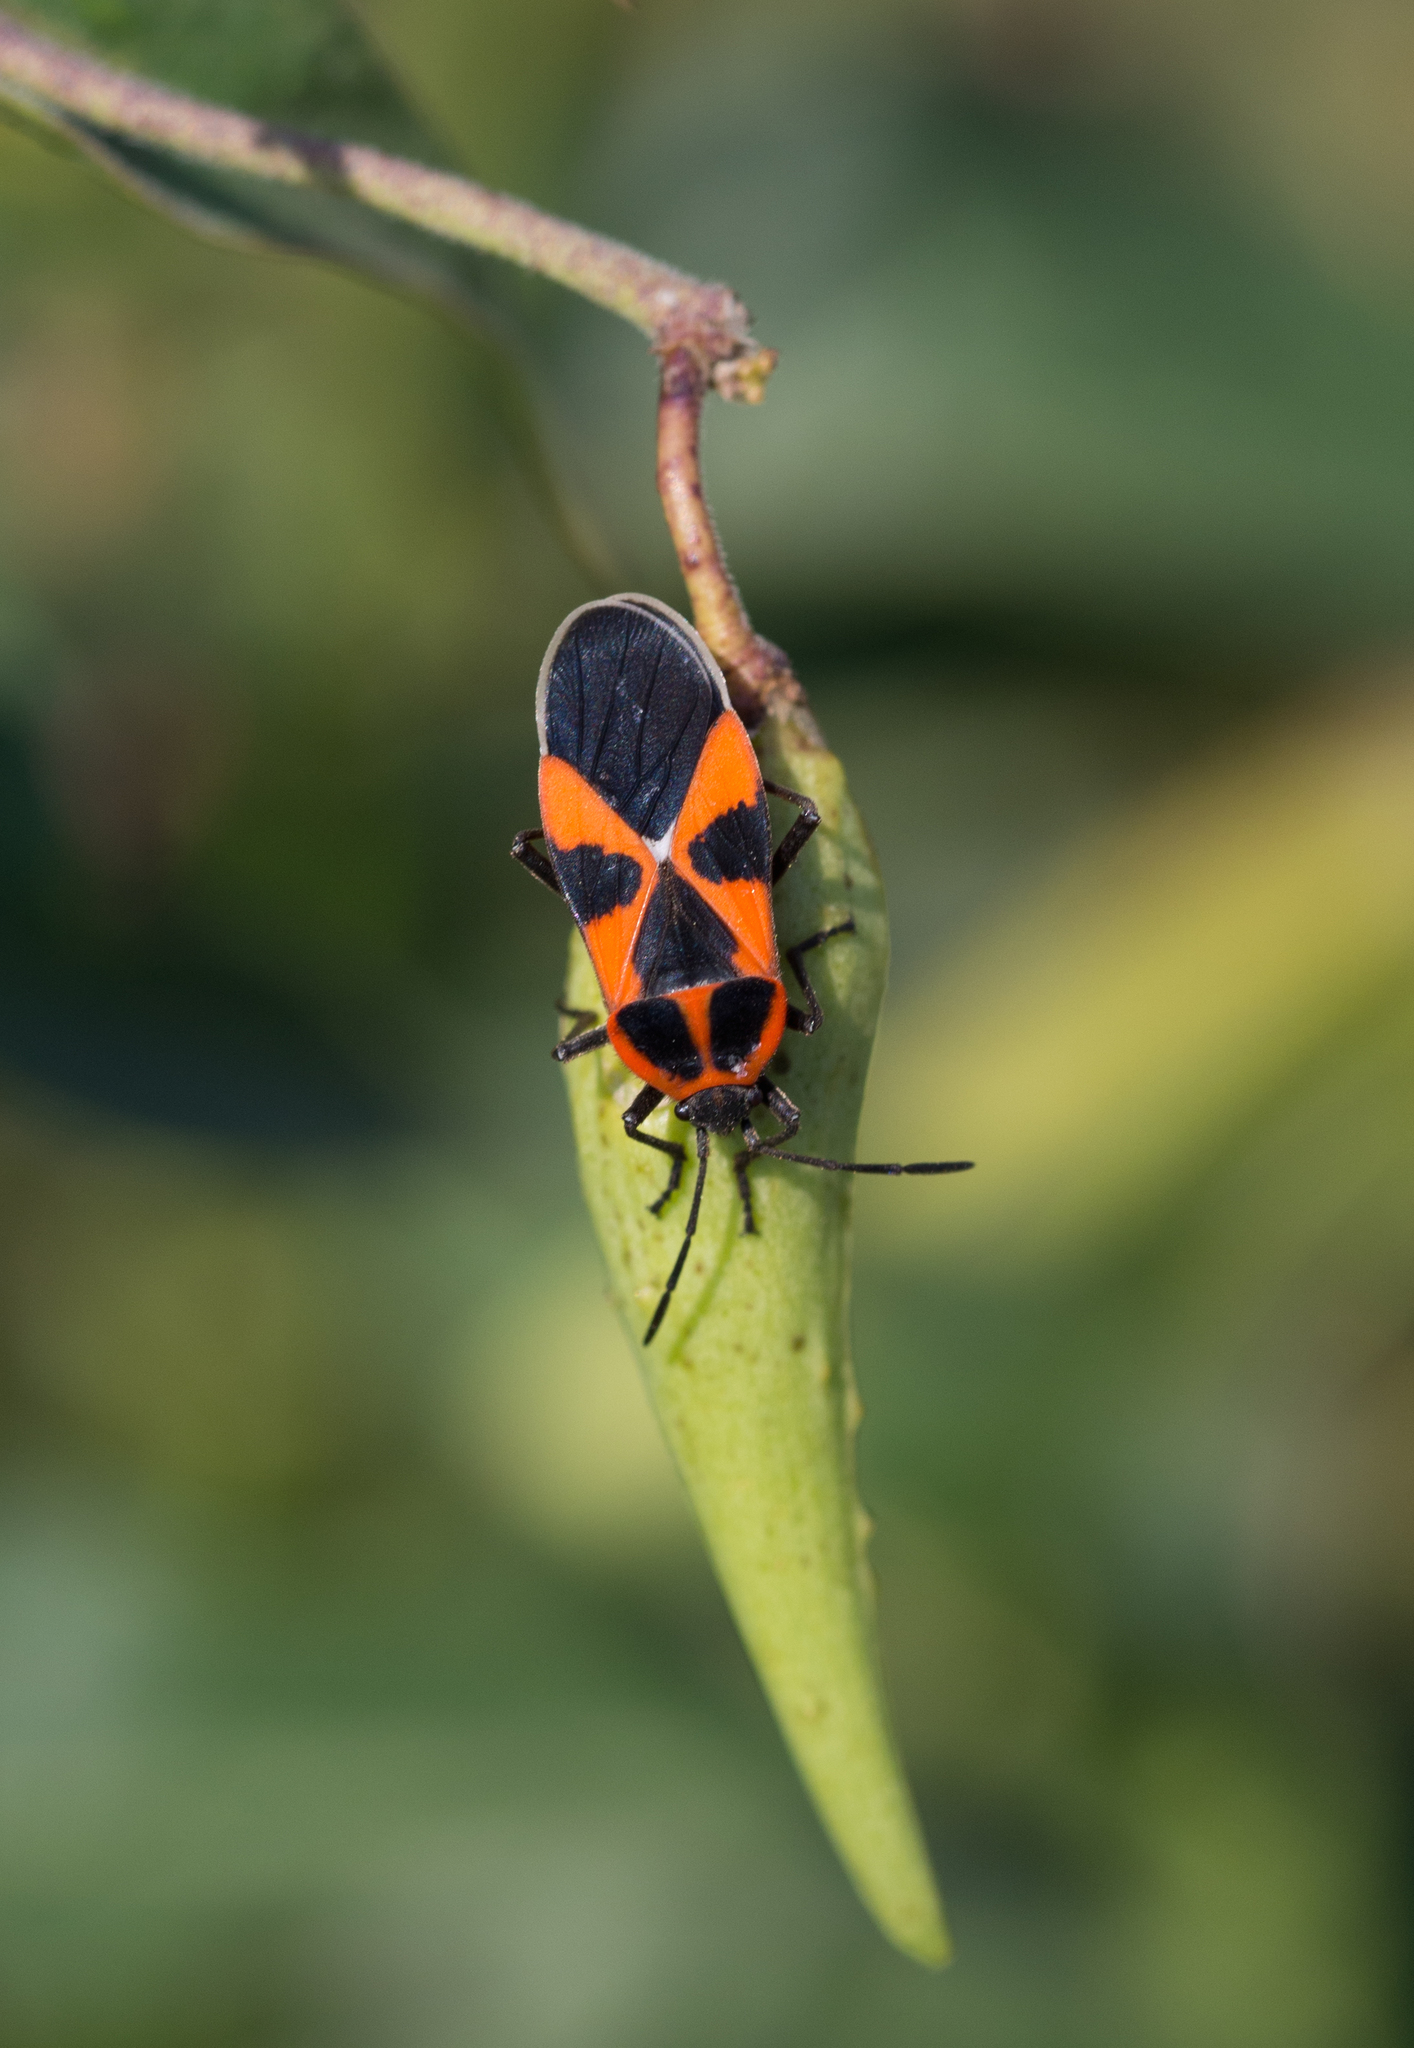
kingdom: Plantae
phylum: Tracheophyta
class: Magnoliopsida
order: Gentianales
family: Apocynaceae
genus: Vincetoxicum
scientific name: Vincetoxicum hirundinaria
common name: White swallowwort
